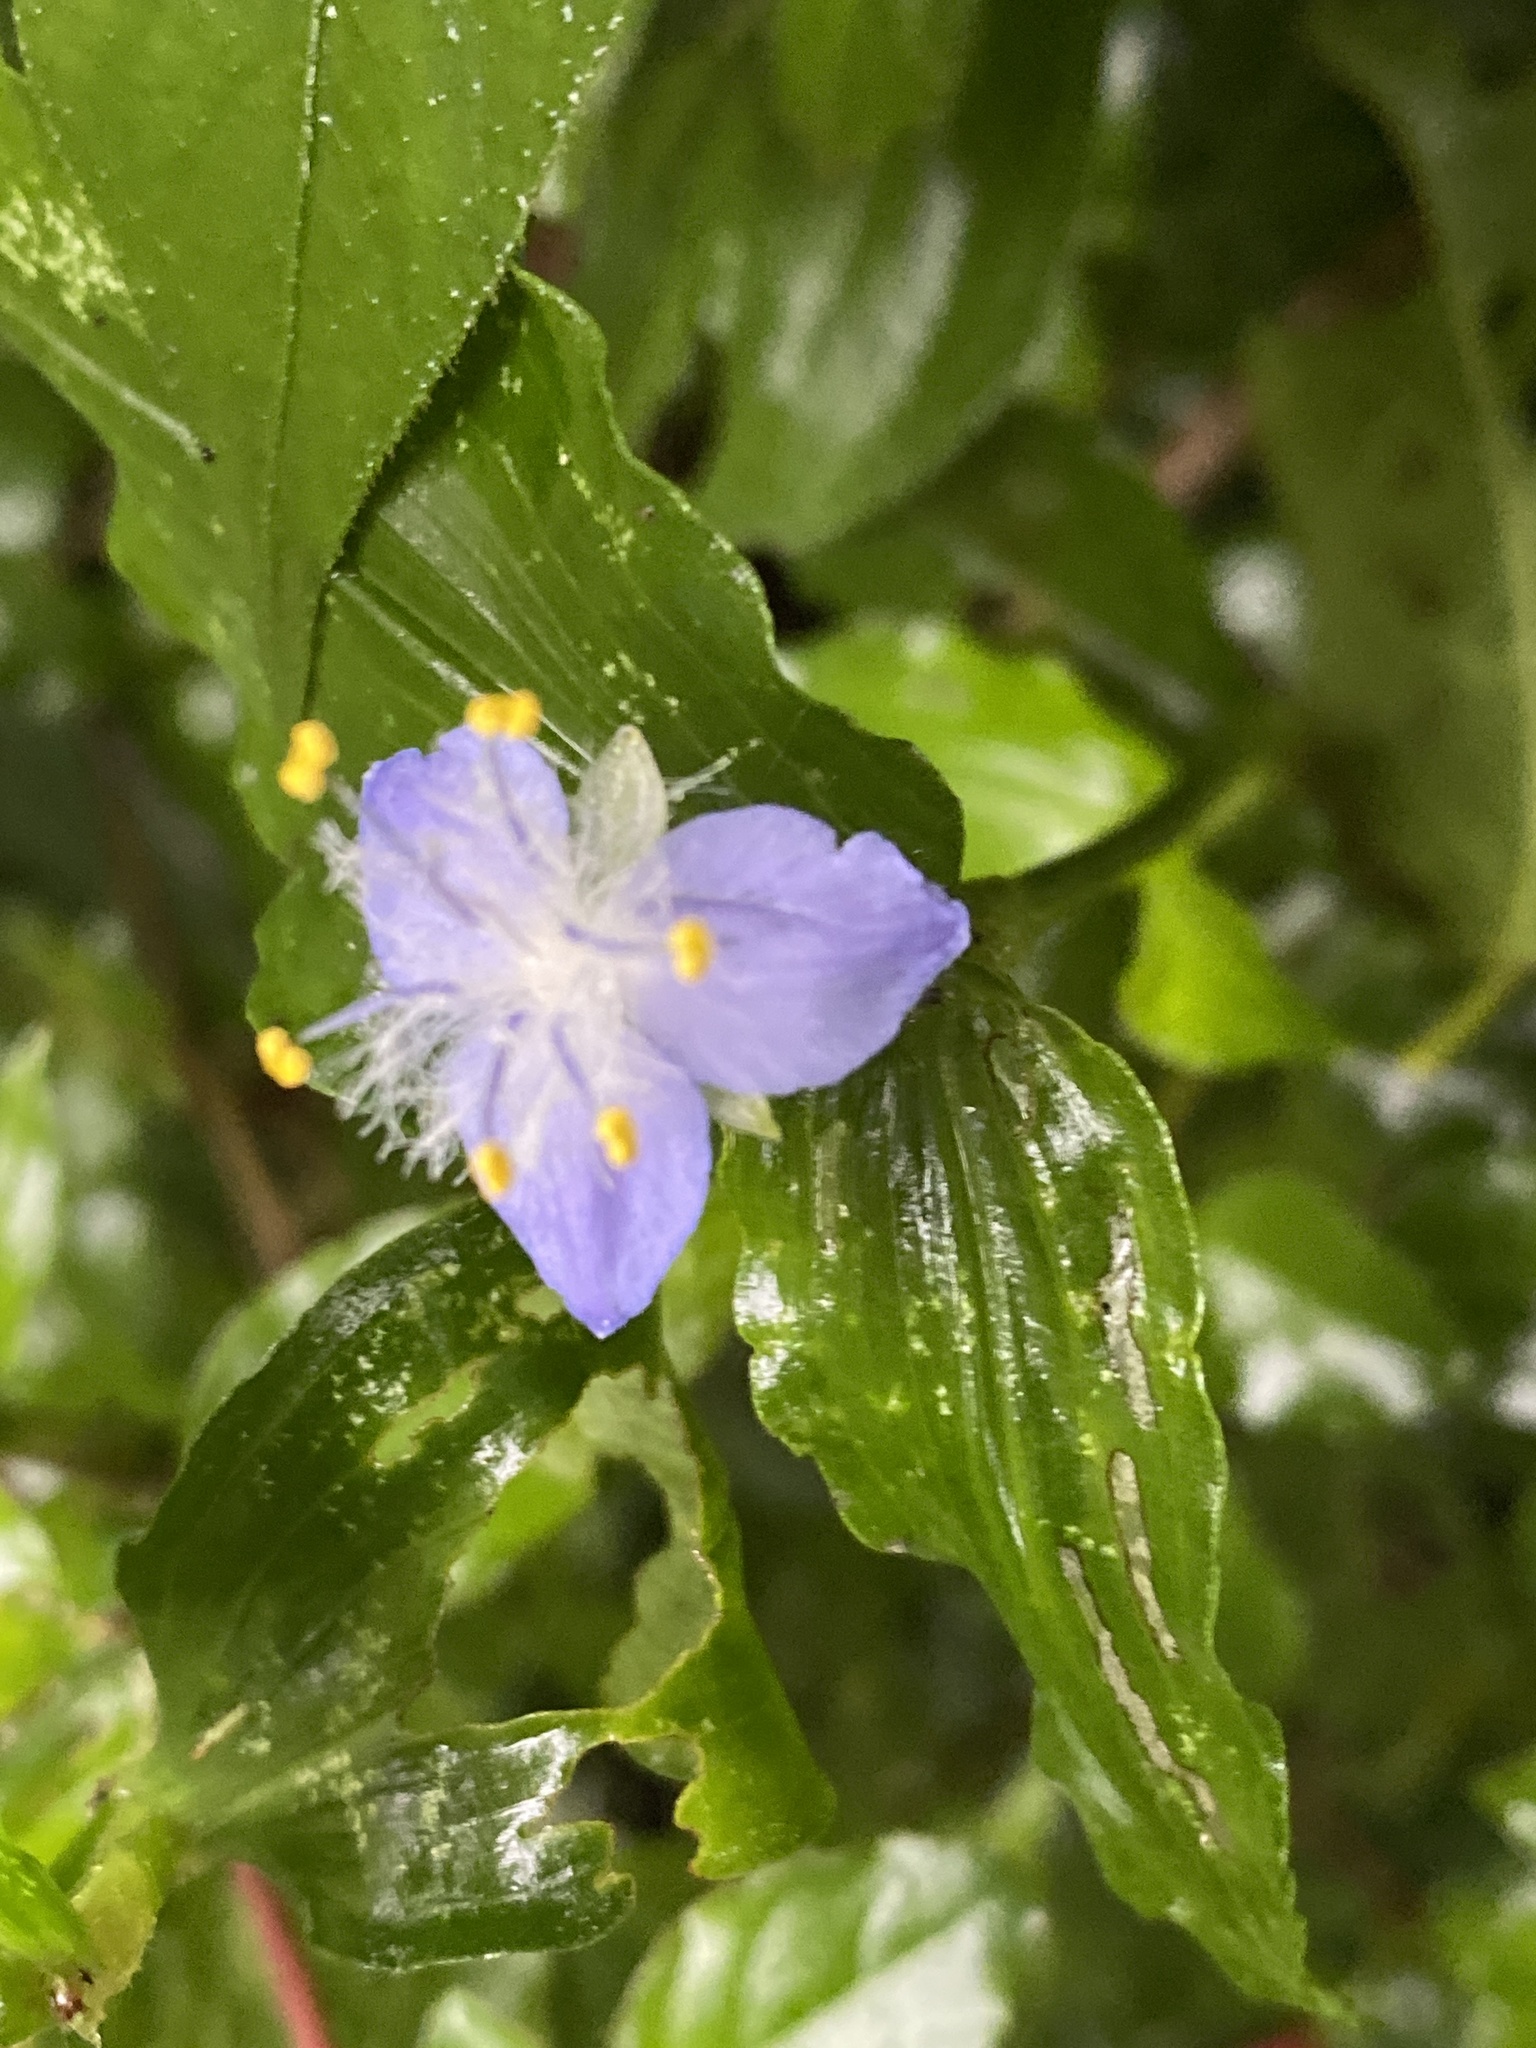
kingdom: Plantae
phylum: Tracheophyta
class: Liliopsida
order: Commelinales
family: Commelinaceae
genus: Elasis
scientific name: Elasis guatemalensis
